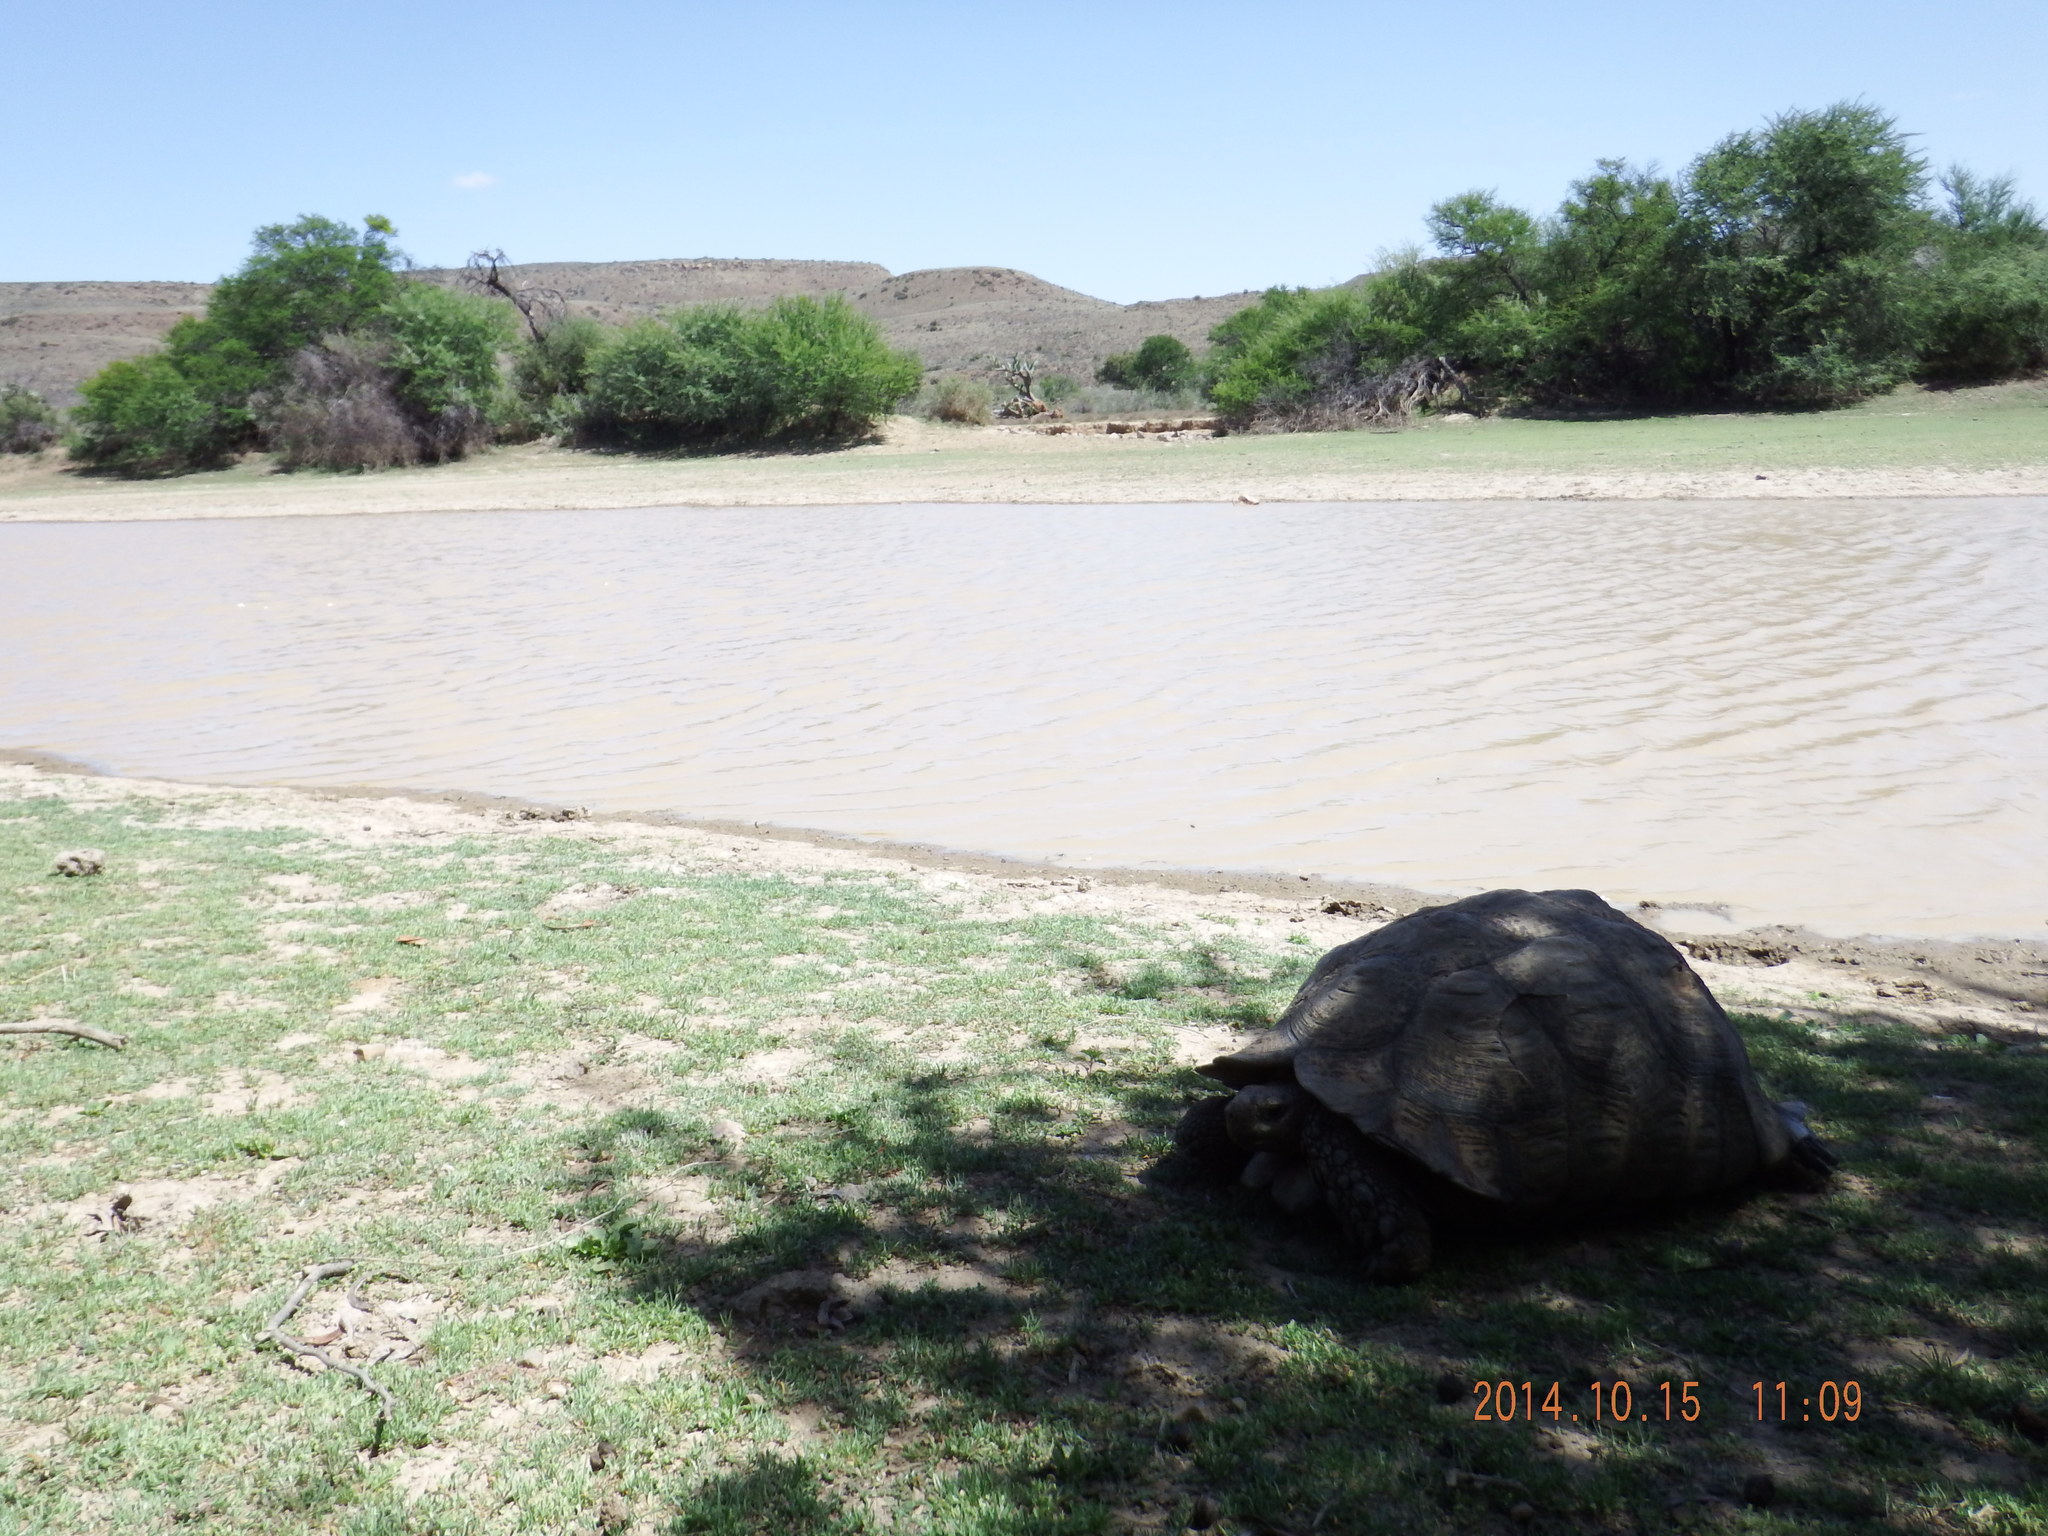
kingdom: Animalia
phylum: Chordata
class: Testudines
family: Testudinidae
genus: Stigmochelys
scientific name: Stigmochelys pardalis
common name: Leopard tortoise
